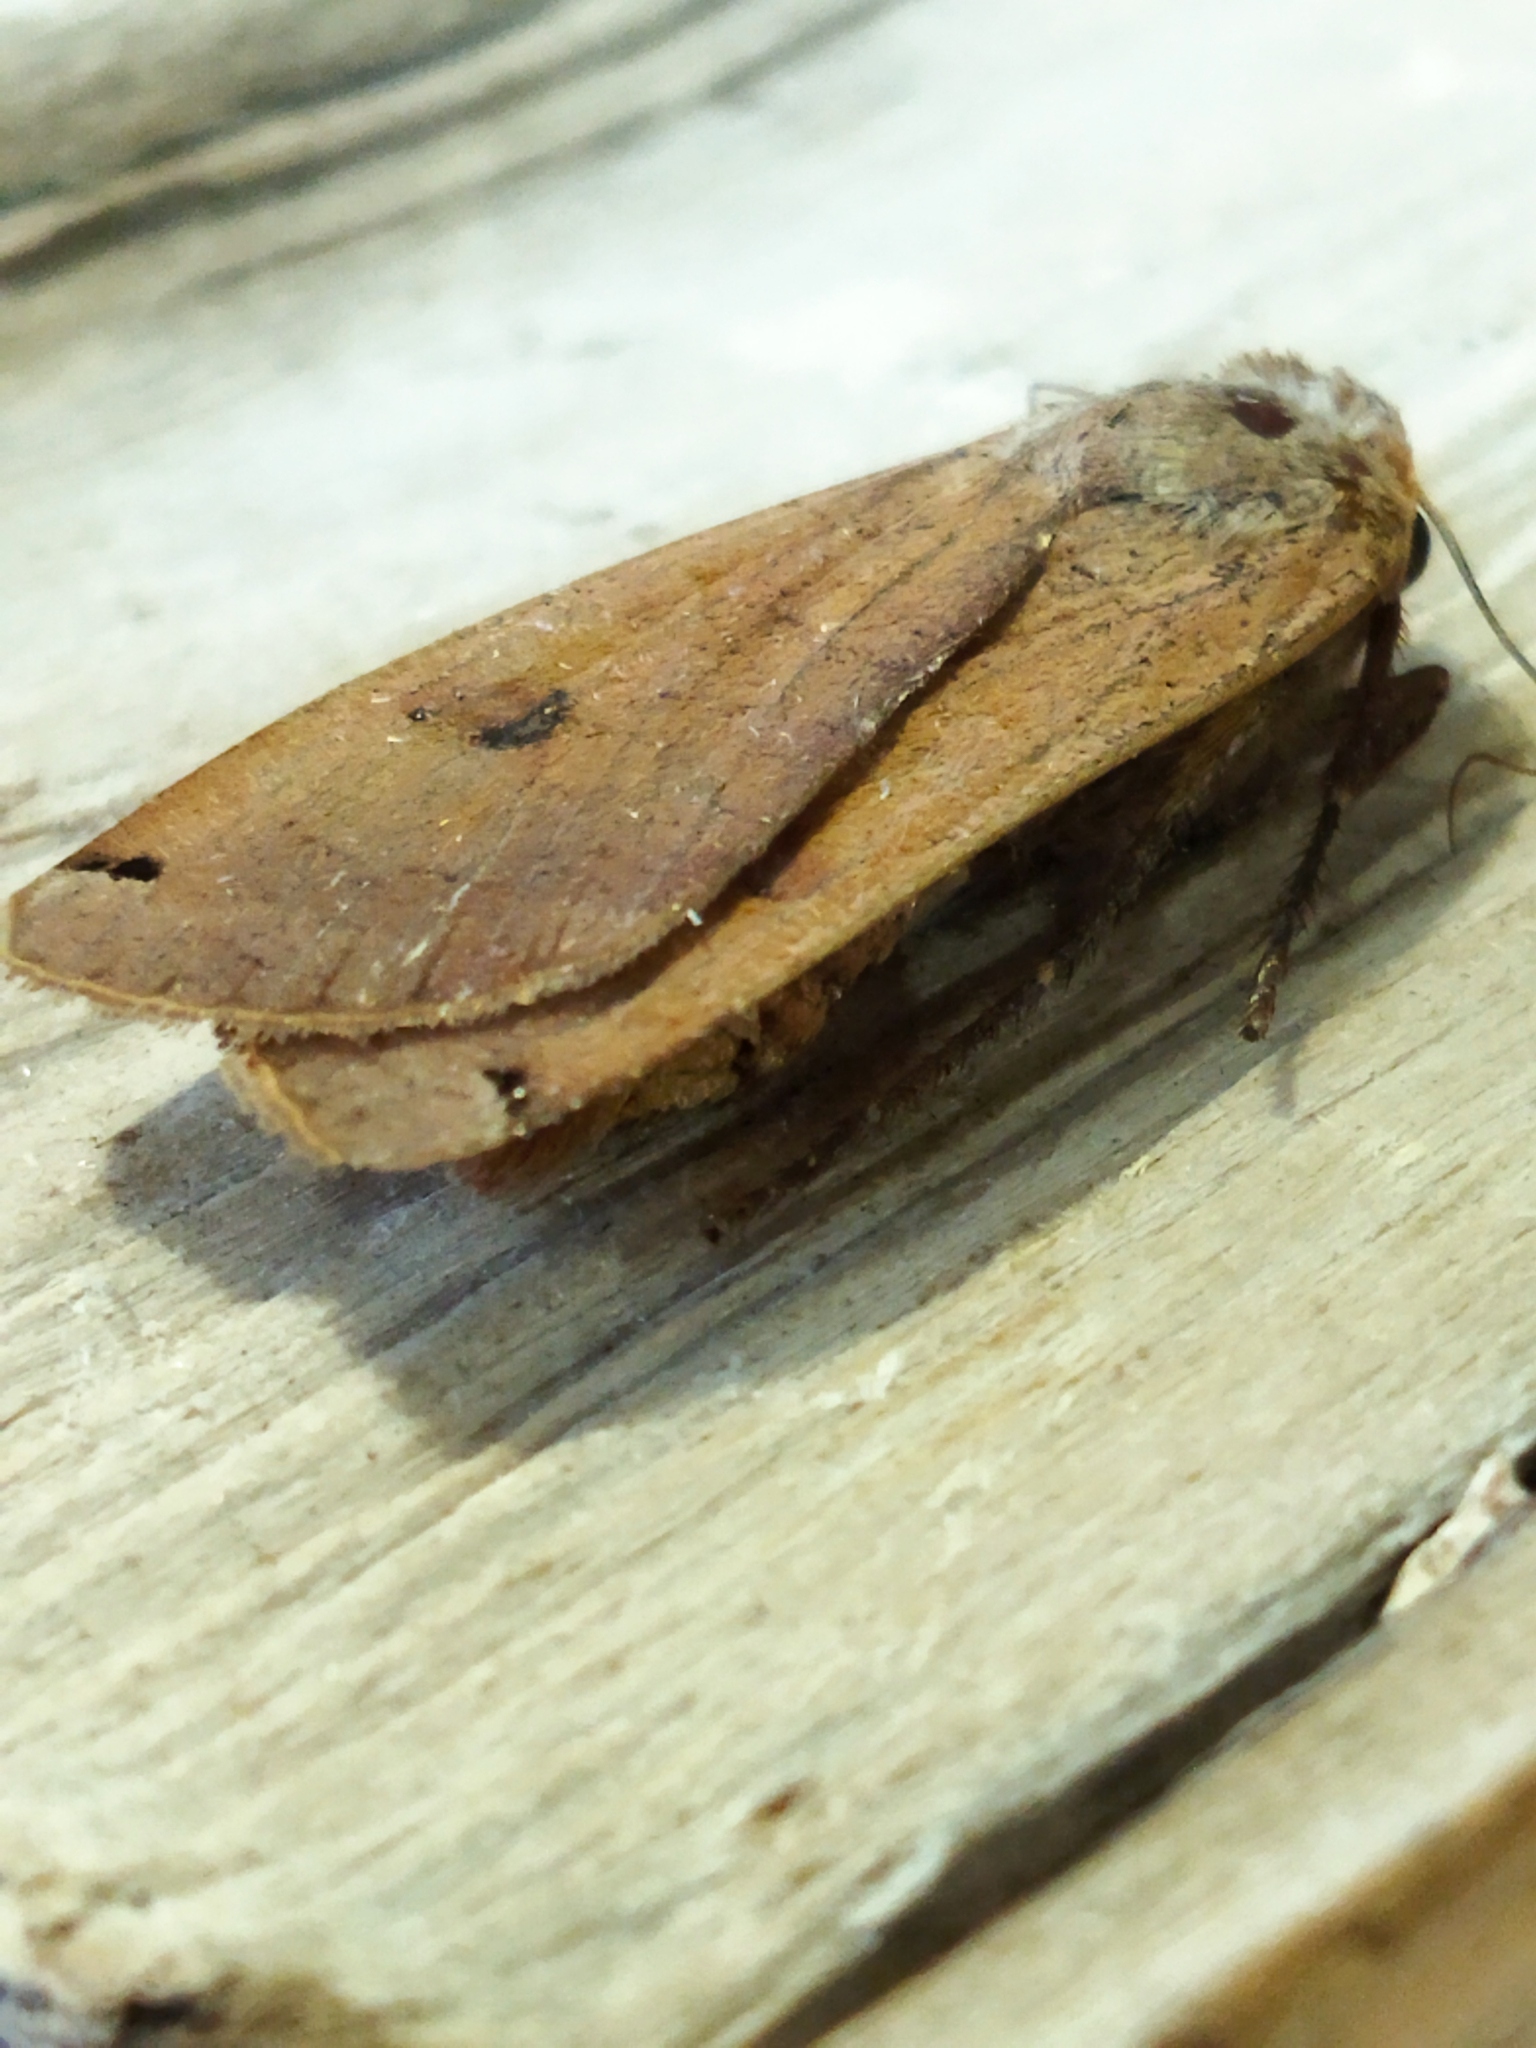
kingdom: Animalia
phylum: Arthropoda
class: Insecta
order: Lepidoptera
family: Noctuidae
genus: Noctua
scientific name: Noctua pronuba
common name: Large yellow underwing
